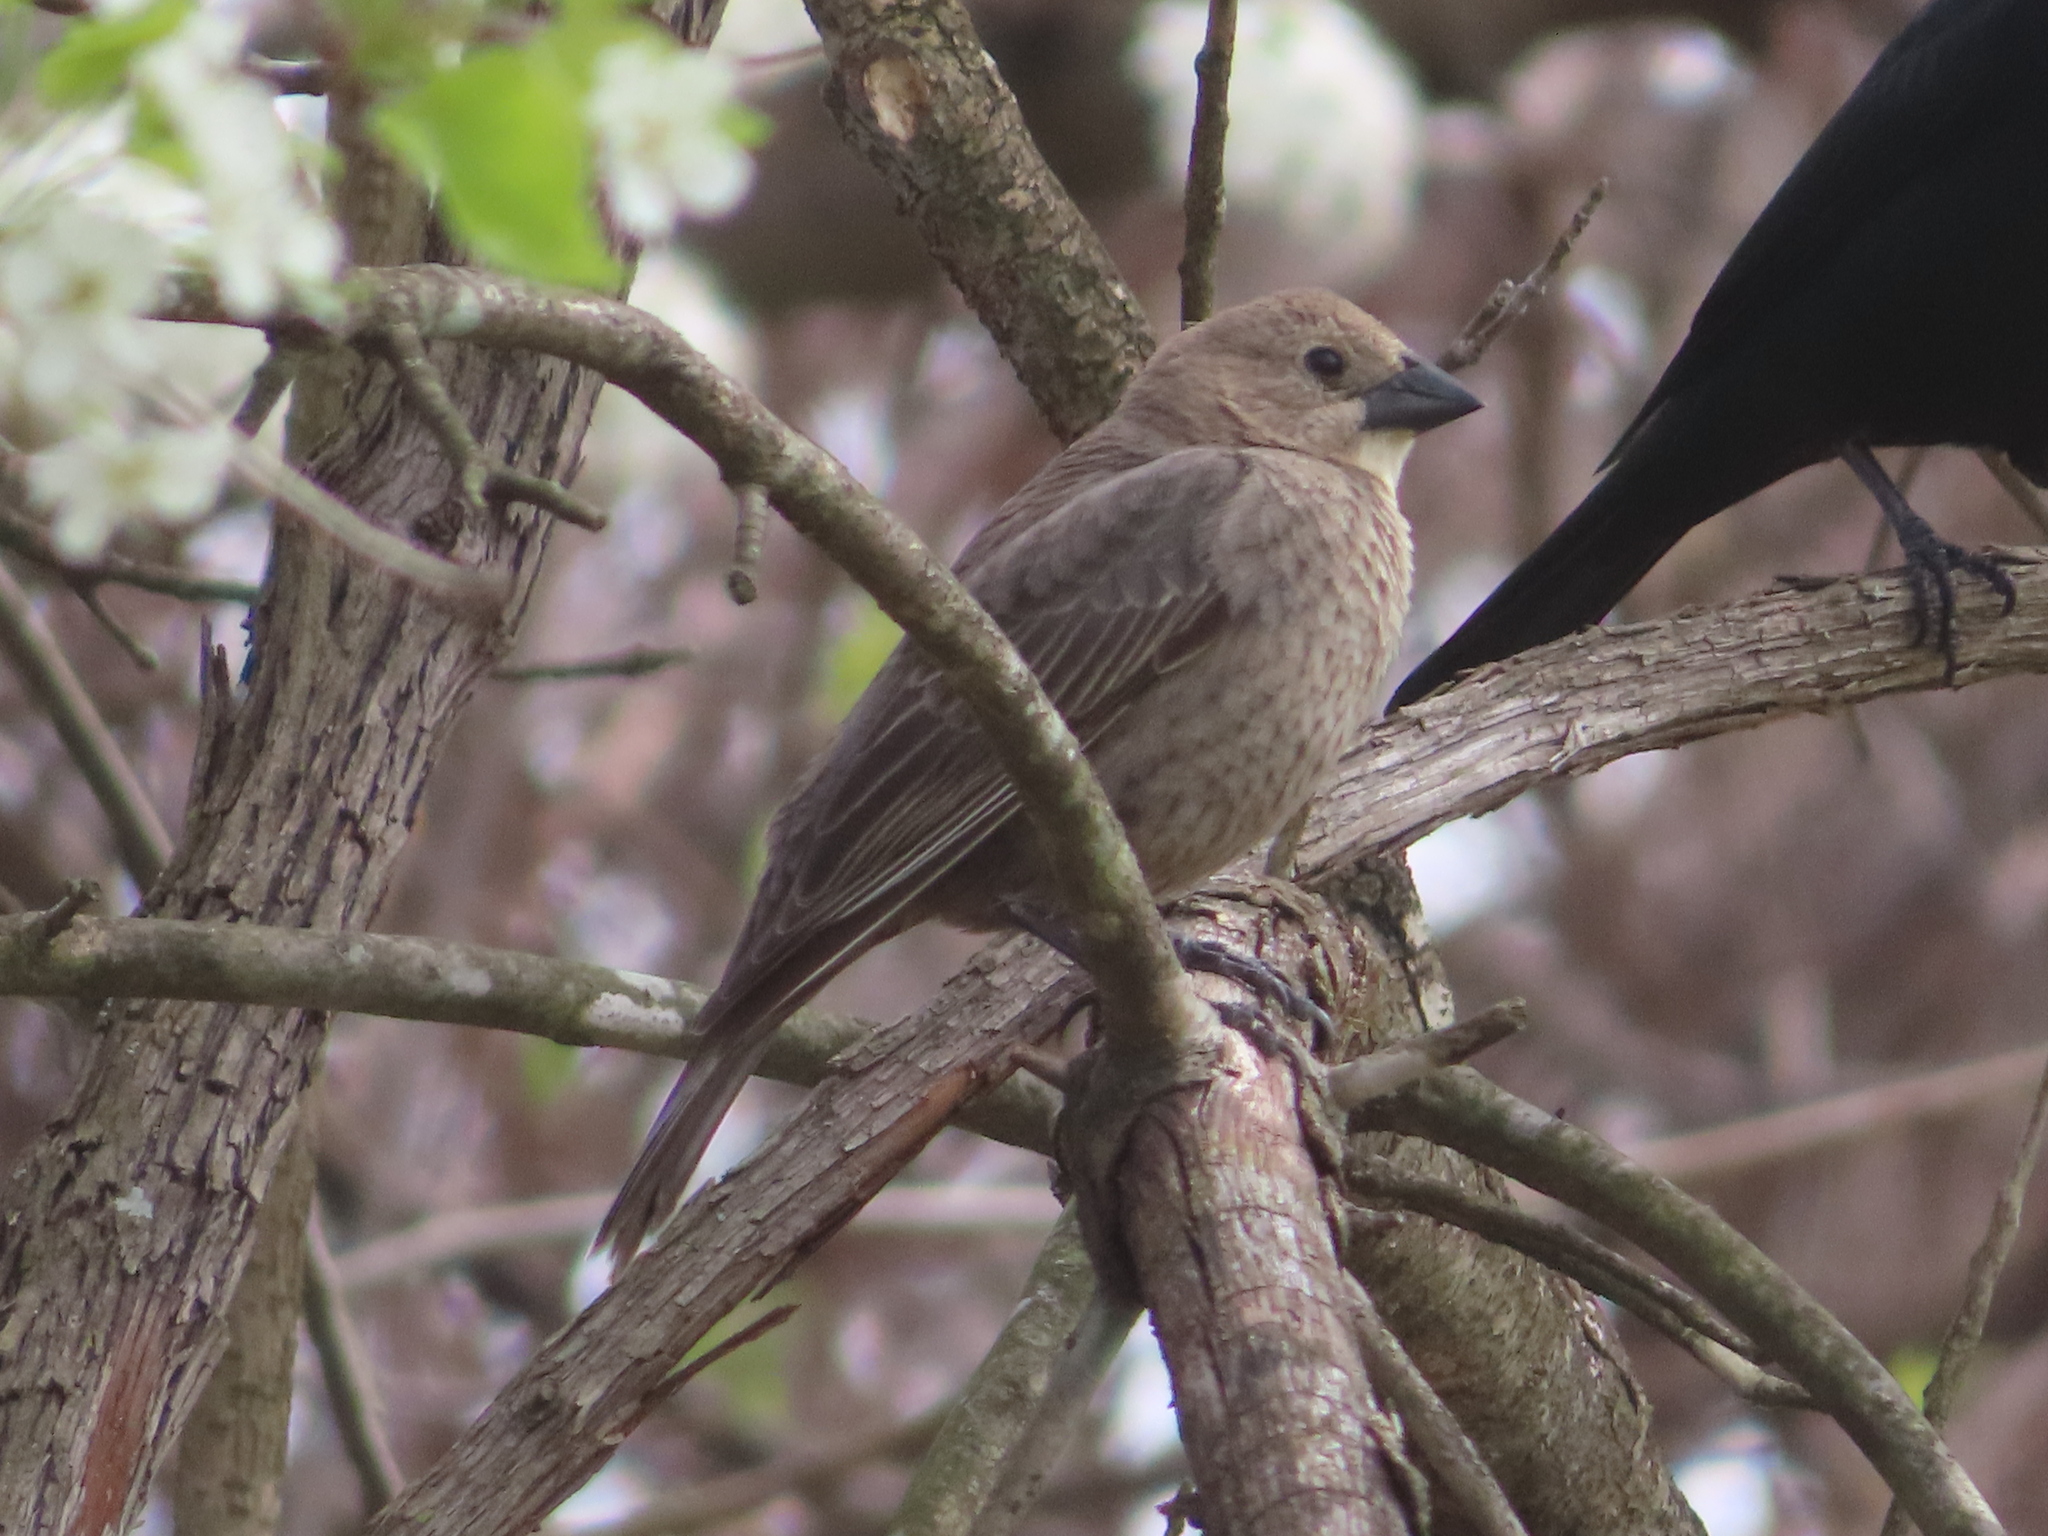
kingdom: Animalia
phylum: Chordata
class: Aves
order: Passeriformes
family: Icteridae
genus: Molothrus
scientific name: Molothrus ater
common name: Brown-headed cowbird
